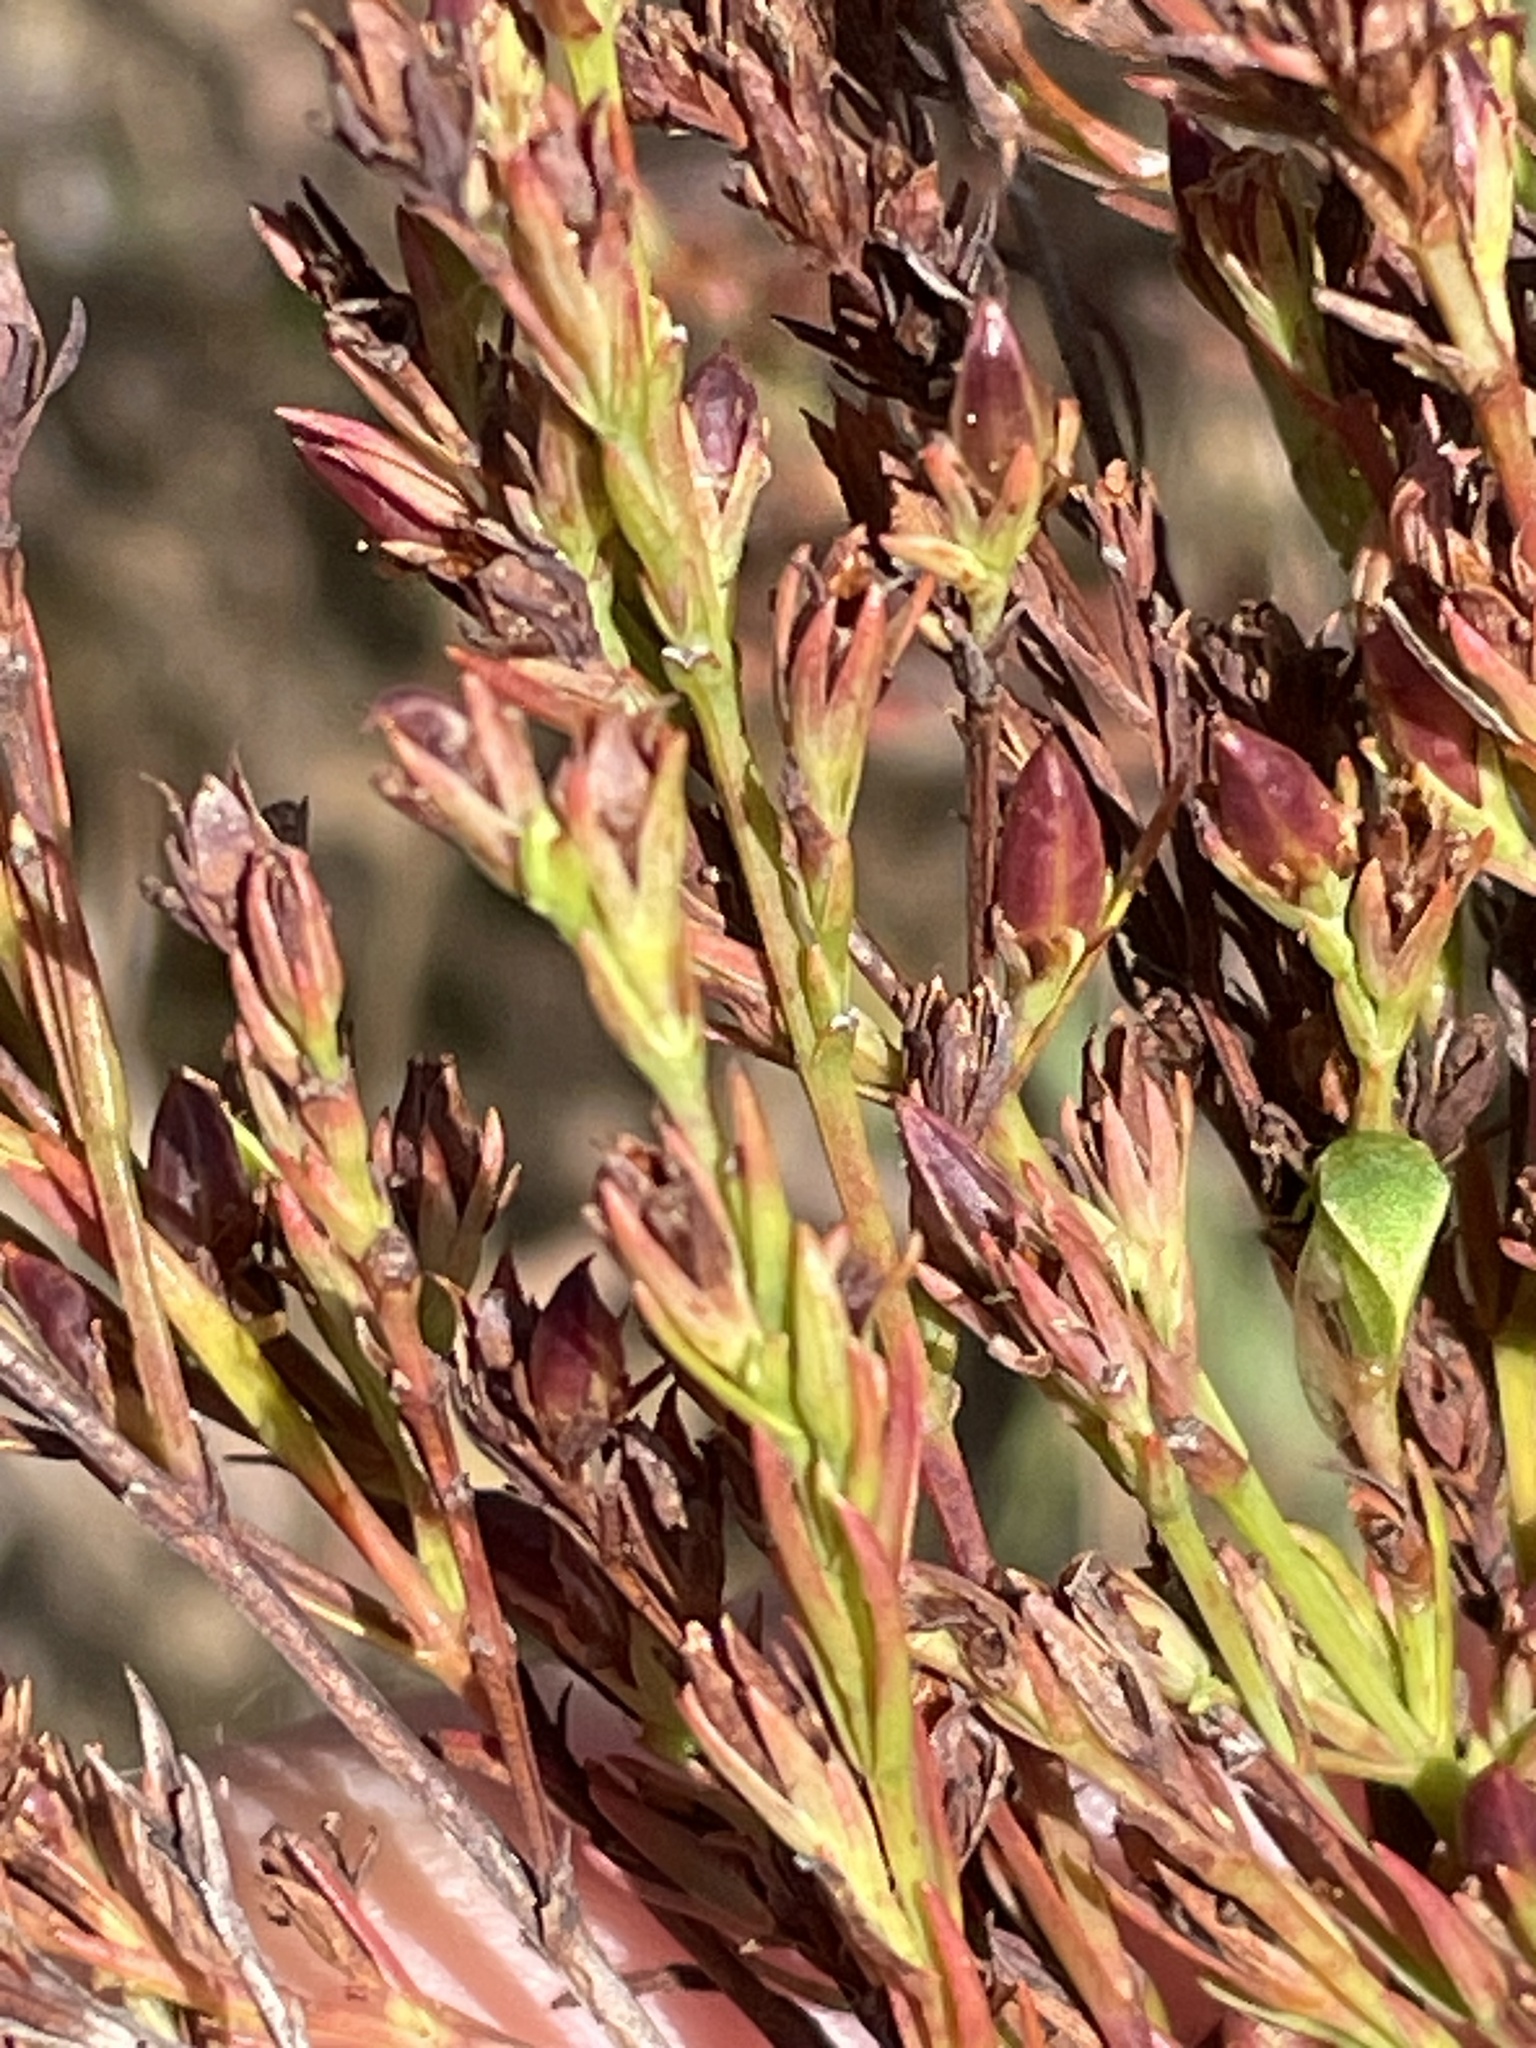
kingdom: Plantae
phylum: Tracheophyta
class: Magnoliopsida
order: Malpighiales
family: Hypericaceae
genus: Hypericum
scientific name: Hypericum drummondii
